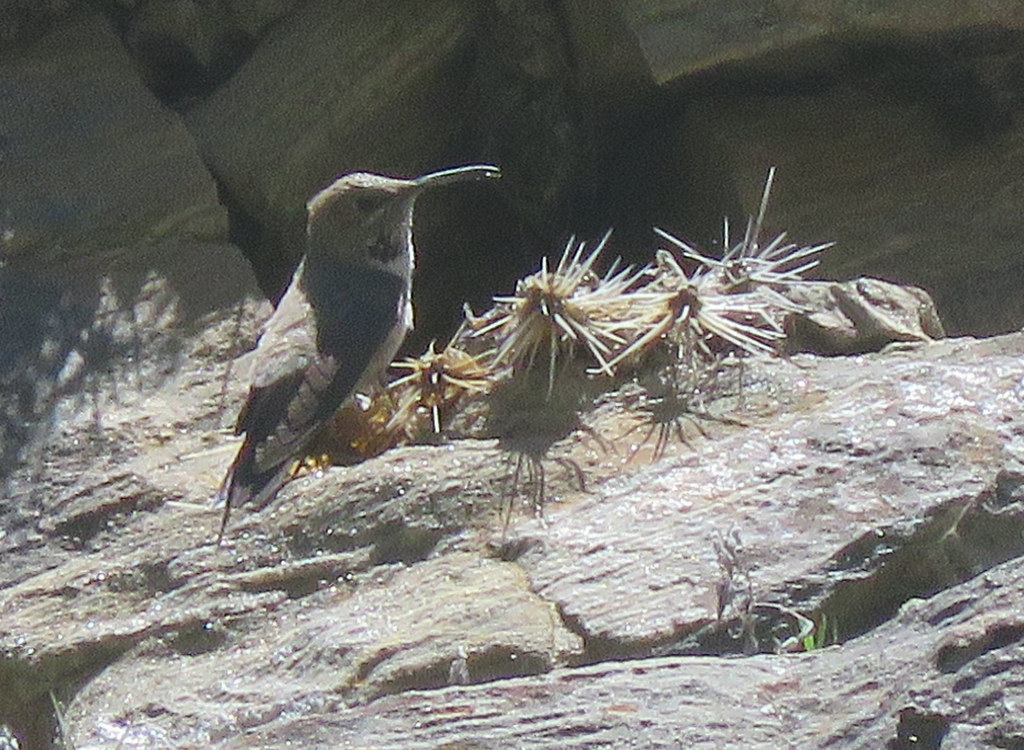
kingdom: Animalia
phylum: Chordata
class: Aves
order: Apodiformes
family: Trochilidae
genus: Oreotrochilus
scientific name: Oreotrochilus estella
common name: Andean hillstar
